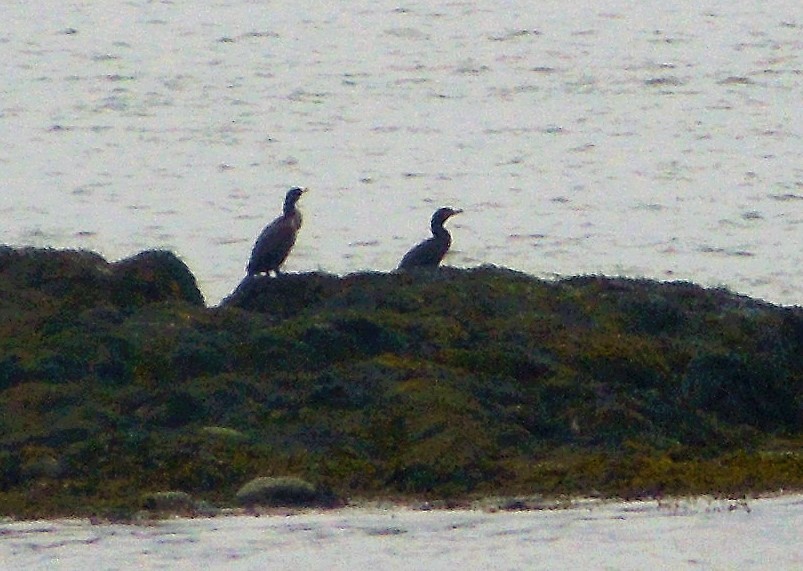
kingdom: Animalia
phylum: Chordata
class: Aves
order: Suliformes
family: Phalacrocoracidae
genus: Phalacrocorax
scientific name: Phalacrocorax auritus
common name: Double-crested cormorant
